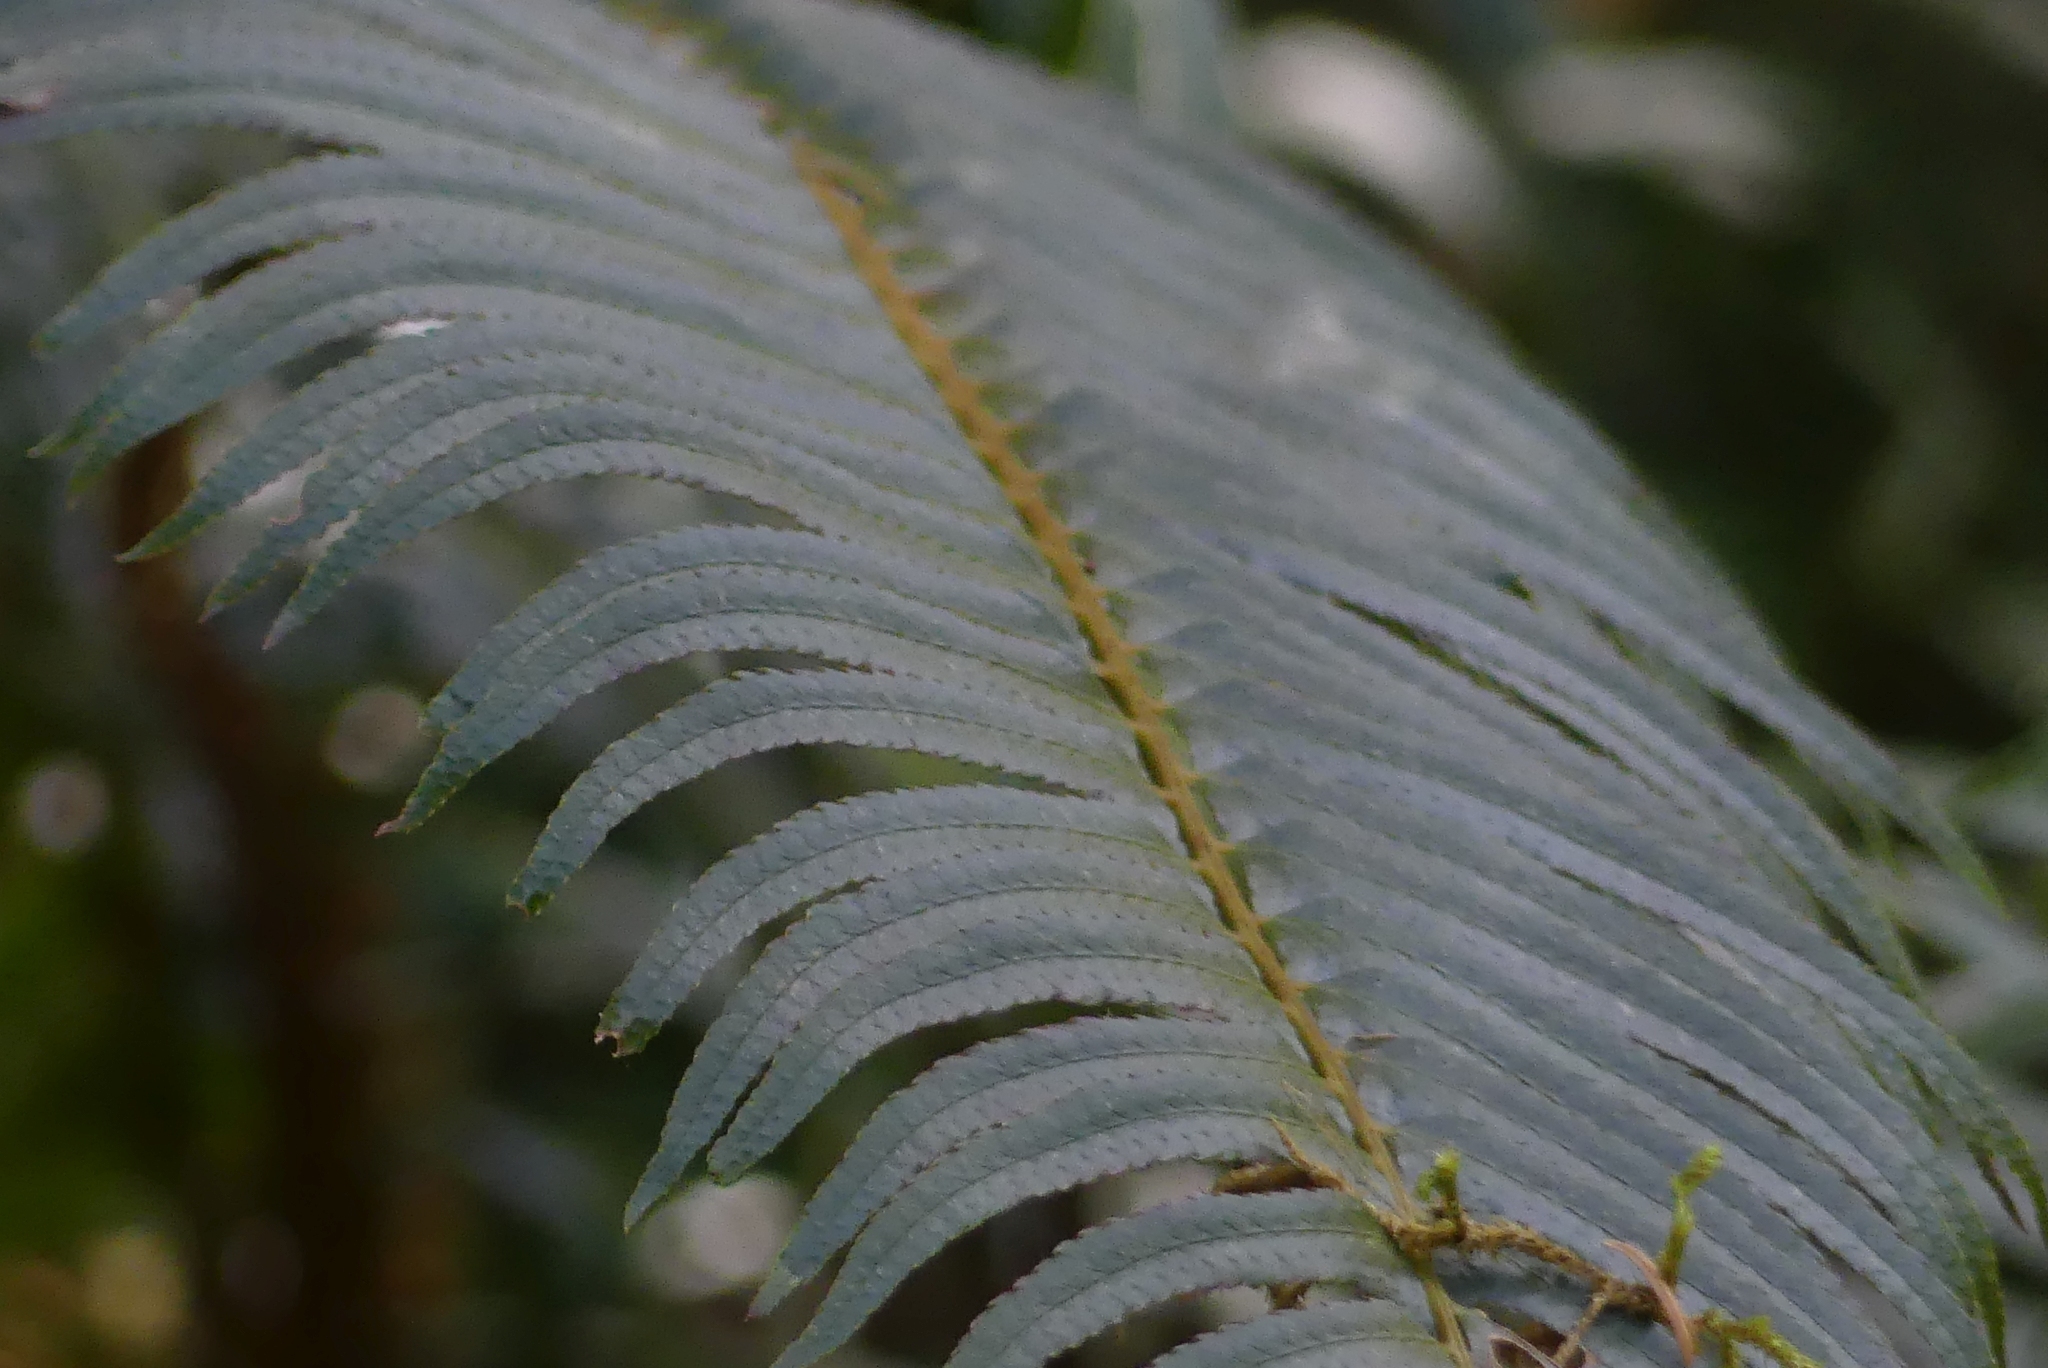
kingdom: Plantae
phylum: Tracheophyta
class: Polypodiopsida
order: Polypodiales
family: Dryopteridaceae
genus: Polystichum
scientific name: Polystichum munitum
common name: Western sword-fern
